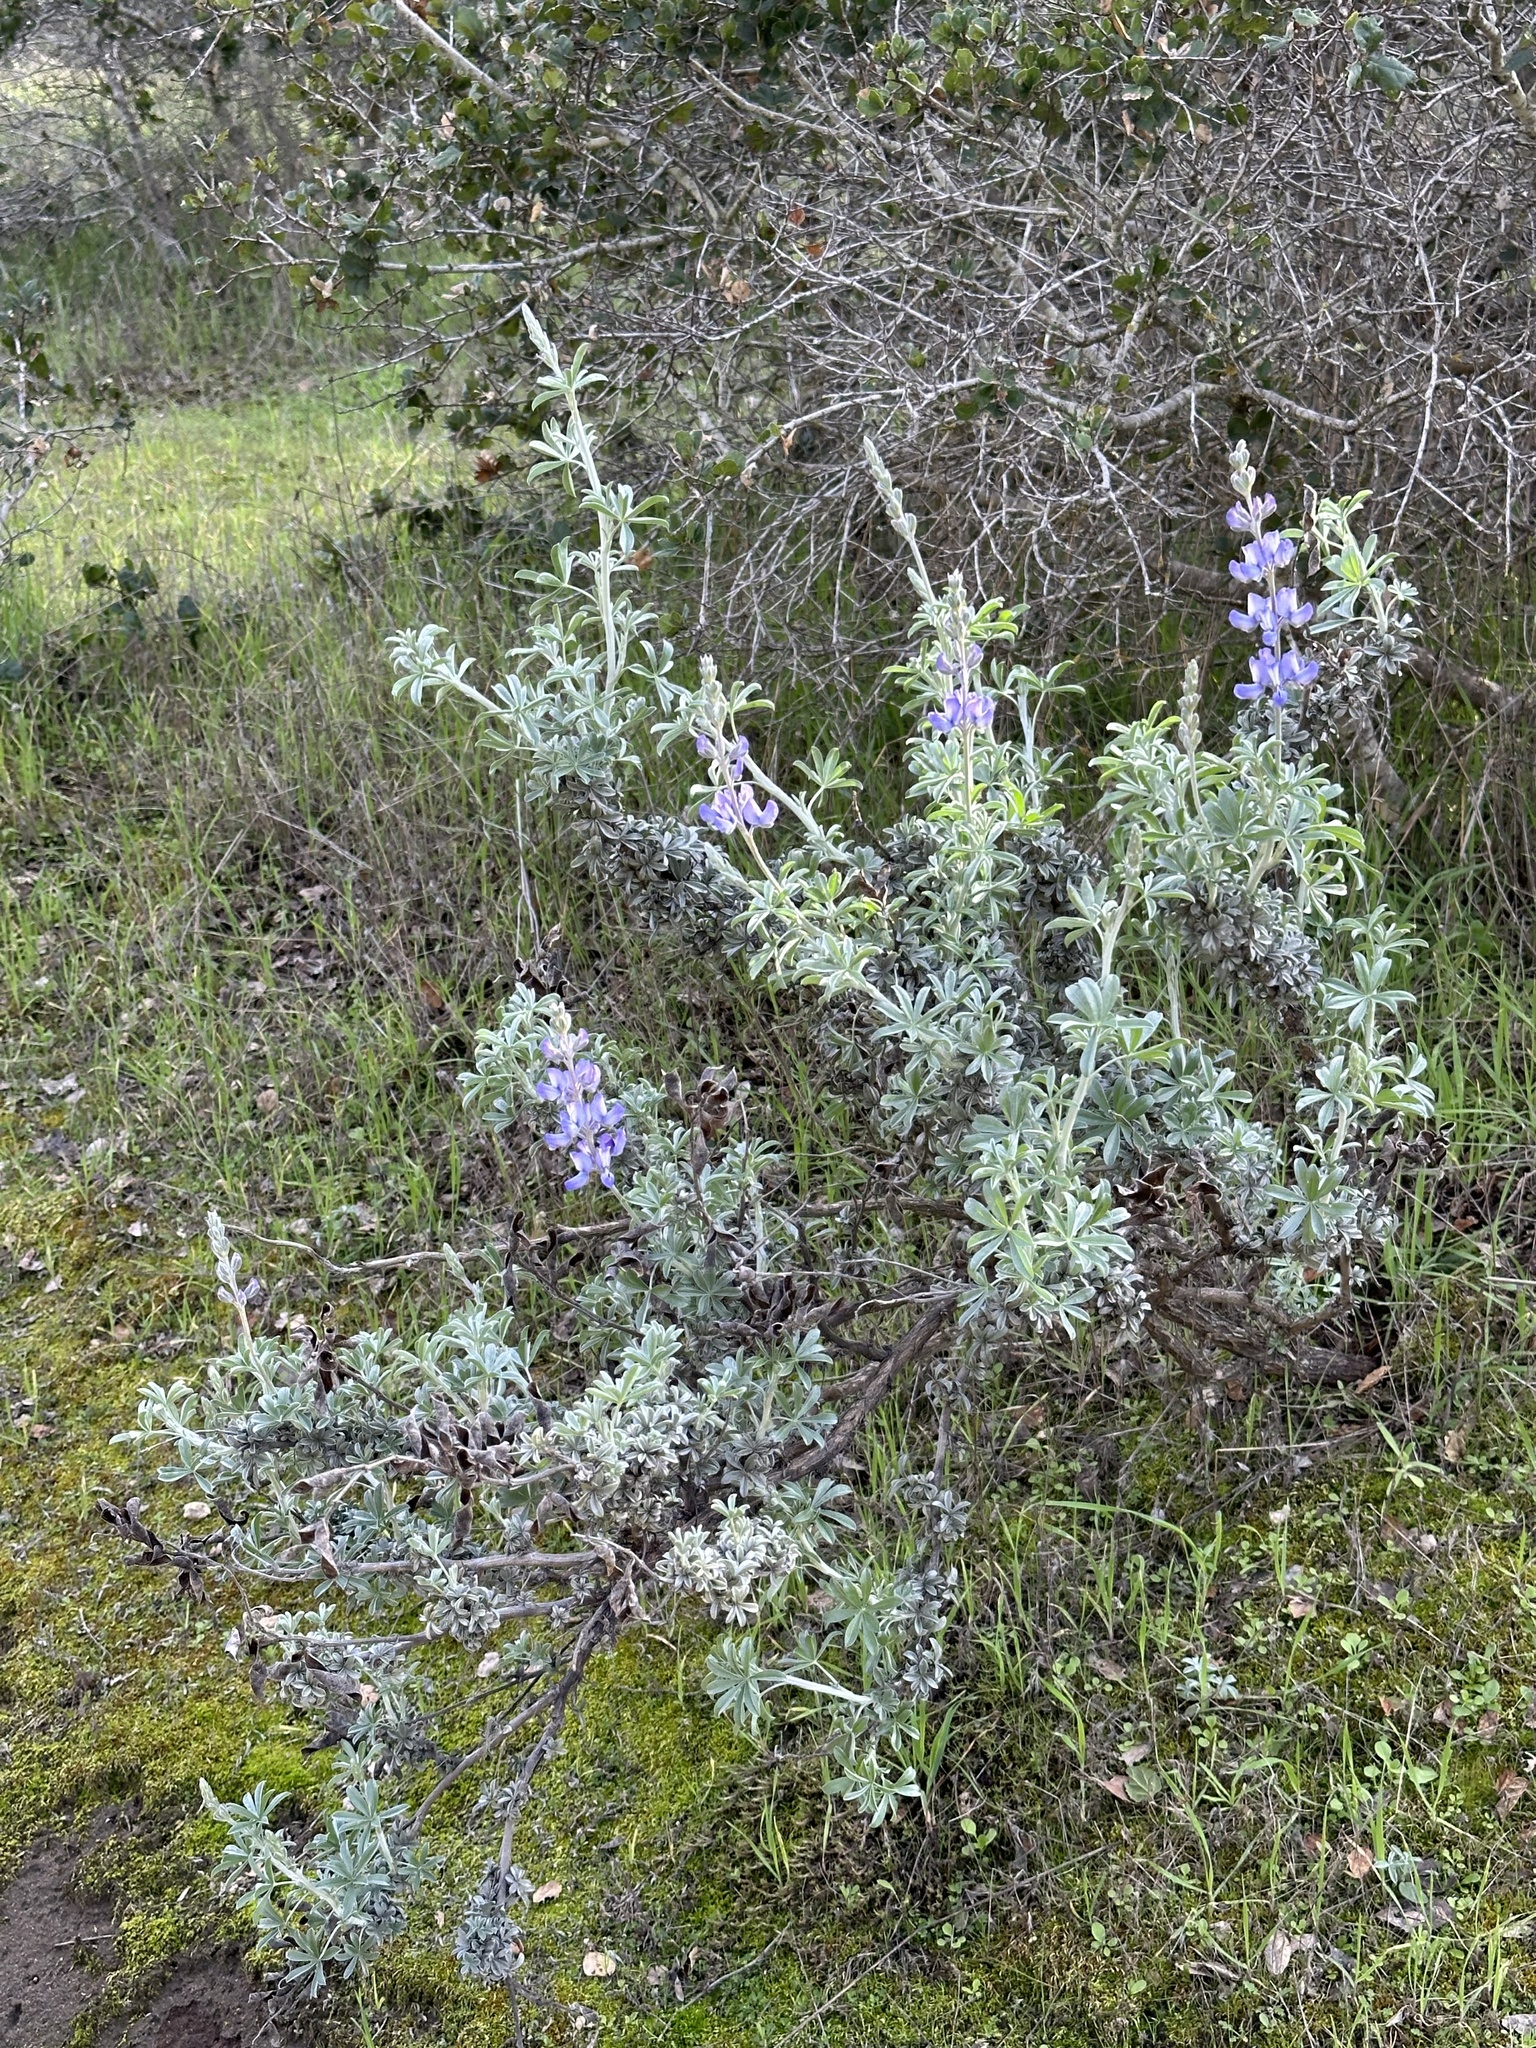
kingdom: Plantae
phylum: Tracheophyta
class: Magnoliopsida
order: Fabales
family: Fabaceae
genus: Lupinus
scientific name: Lupinus chamissonis
